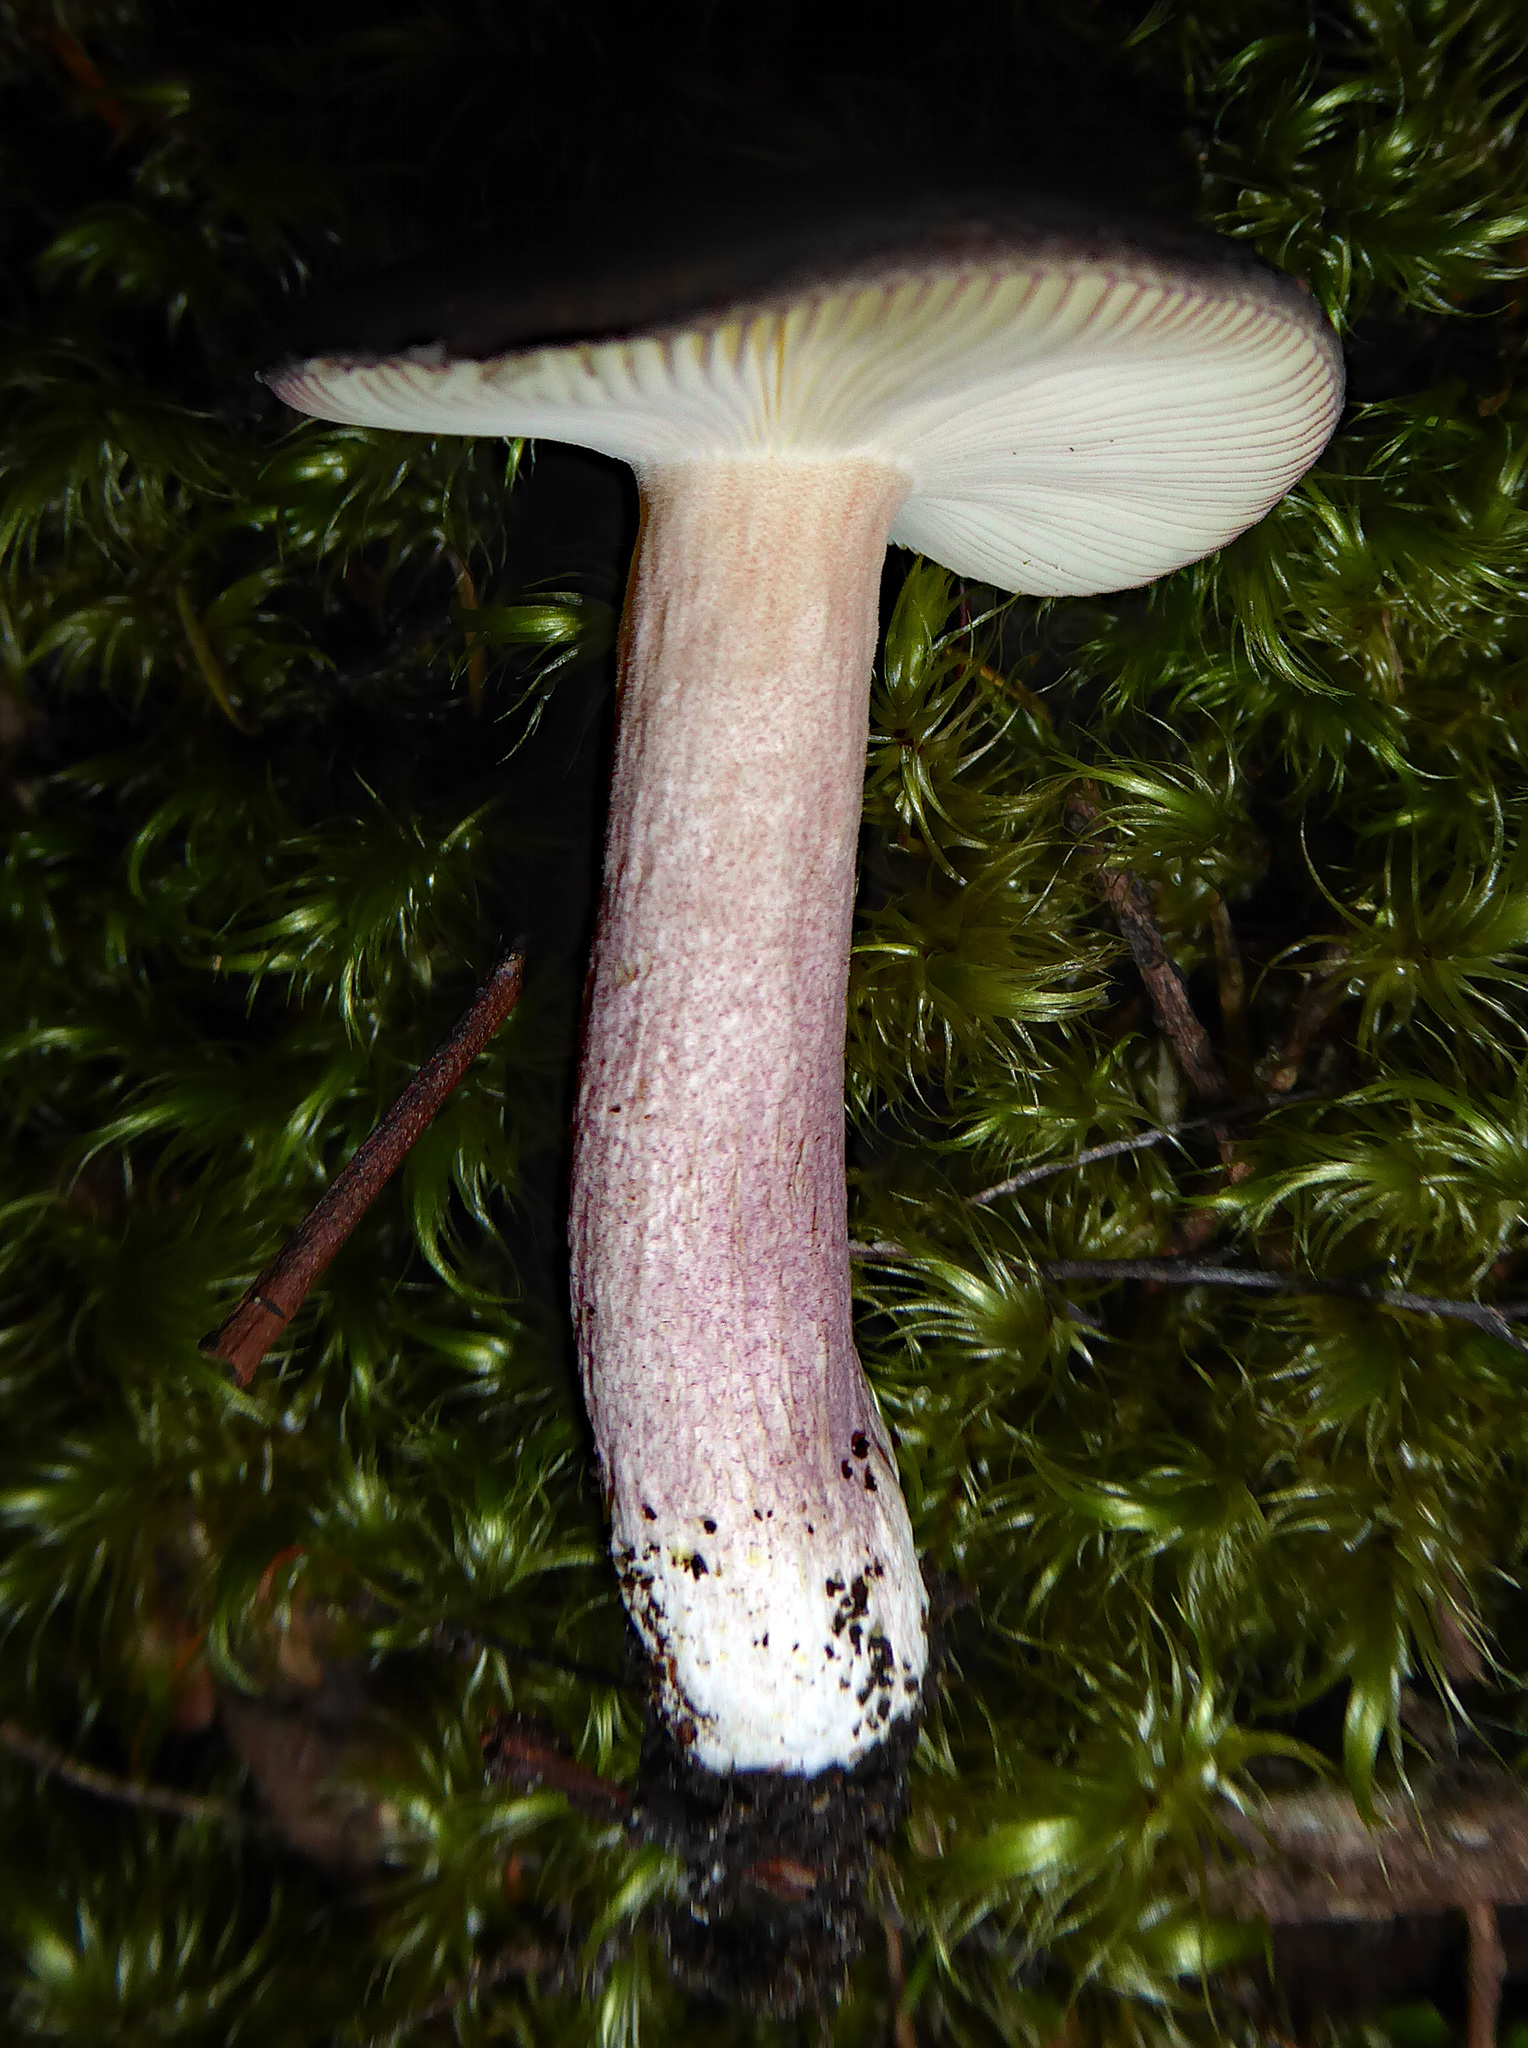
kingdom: Fungi
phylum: Basidiomycota
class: Agaricomycetes
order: Russulales
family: Russulaceae
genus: Russula
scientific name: Russula
